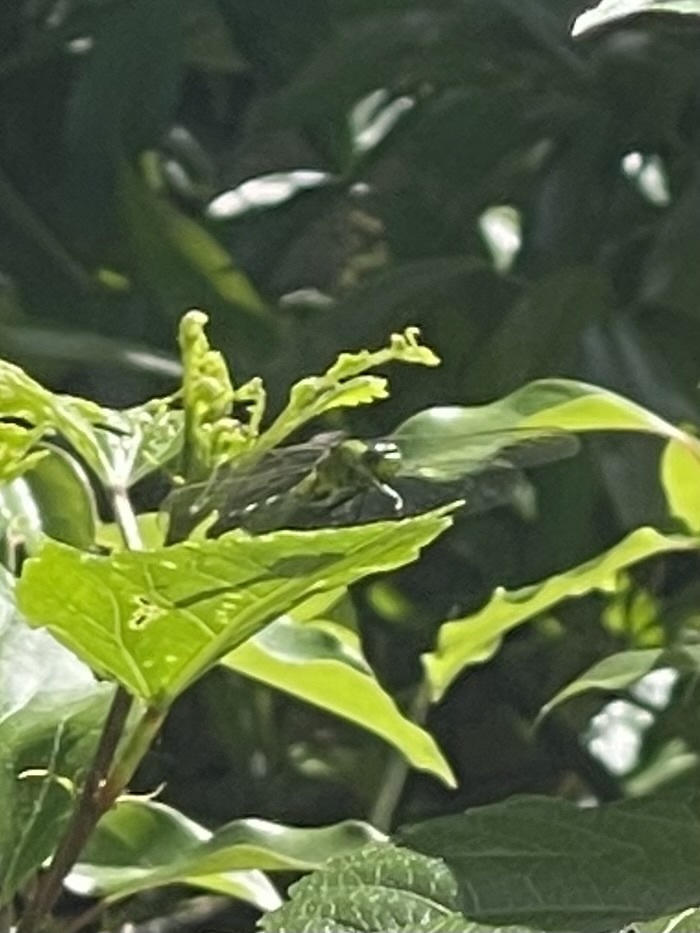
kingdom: Animalia
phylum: Arthropoda
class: Insecta
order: Odonata
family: Libellulidae
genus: Erythemis
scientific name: Erythemis simplicicollis
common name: Eastern pondhawk
